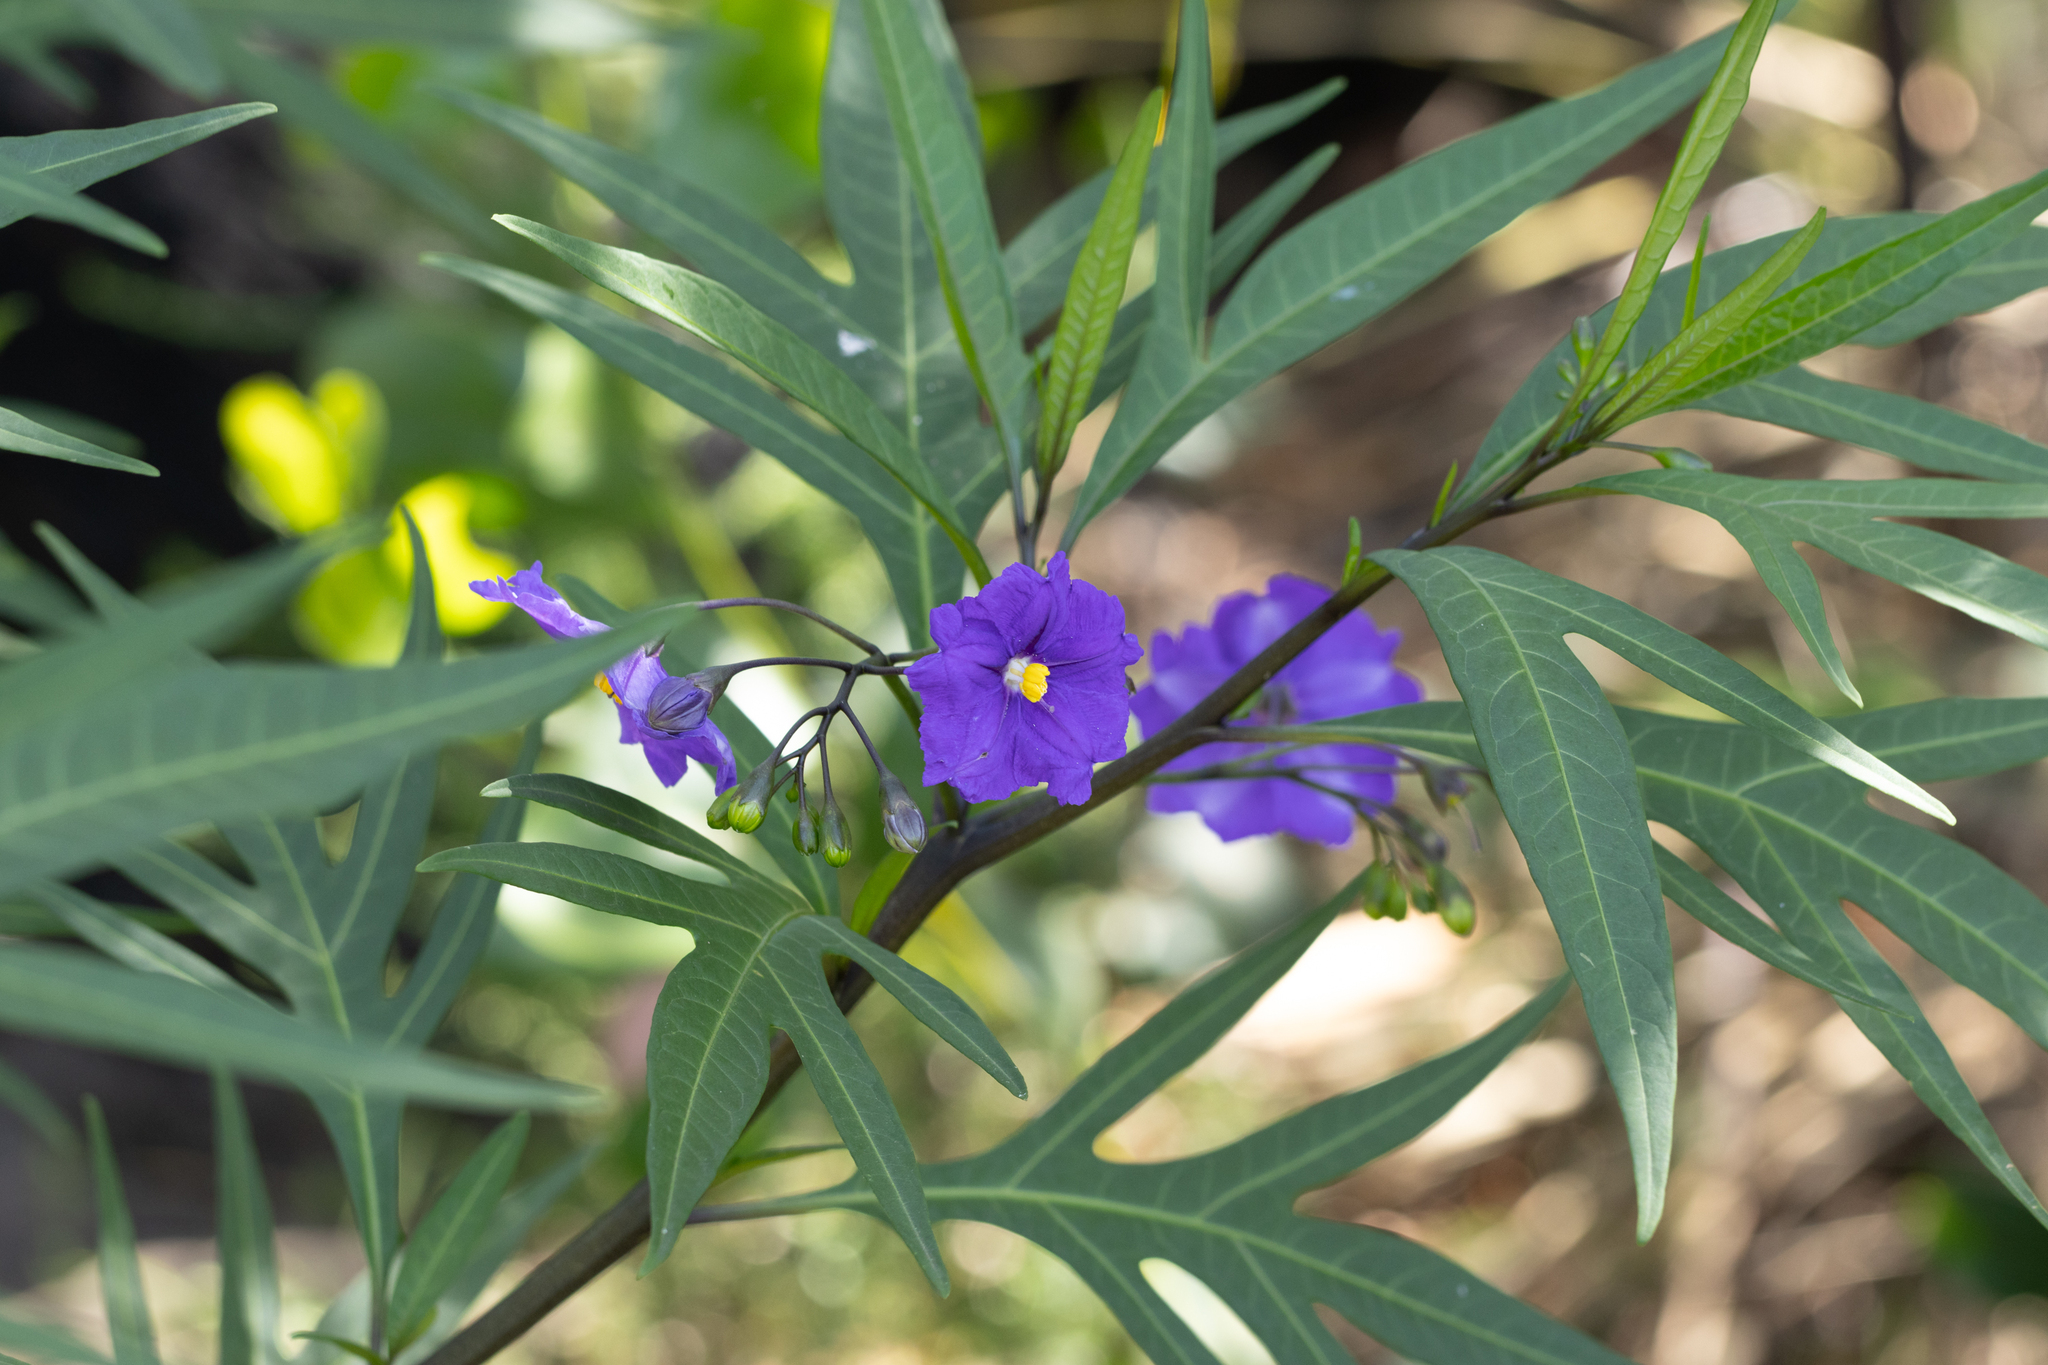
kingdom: Plantae
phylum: Tracheophyta
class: Magnoliopsida
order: Solanales
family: Solanaceae
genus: Solanum
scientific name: Solanum laciniatum
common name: Kangaroo-apple
